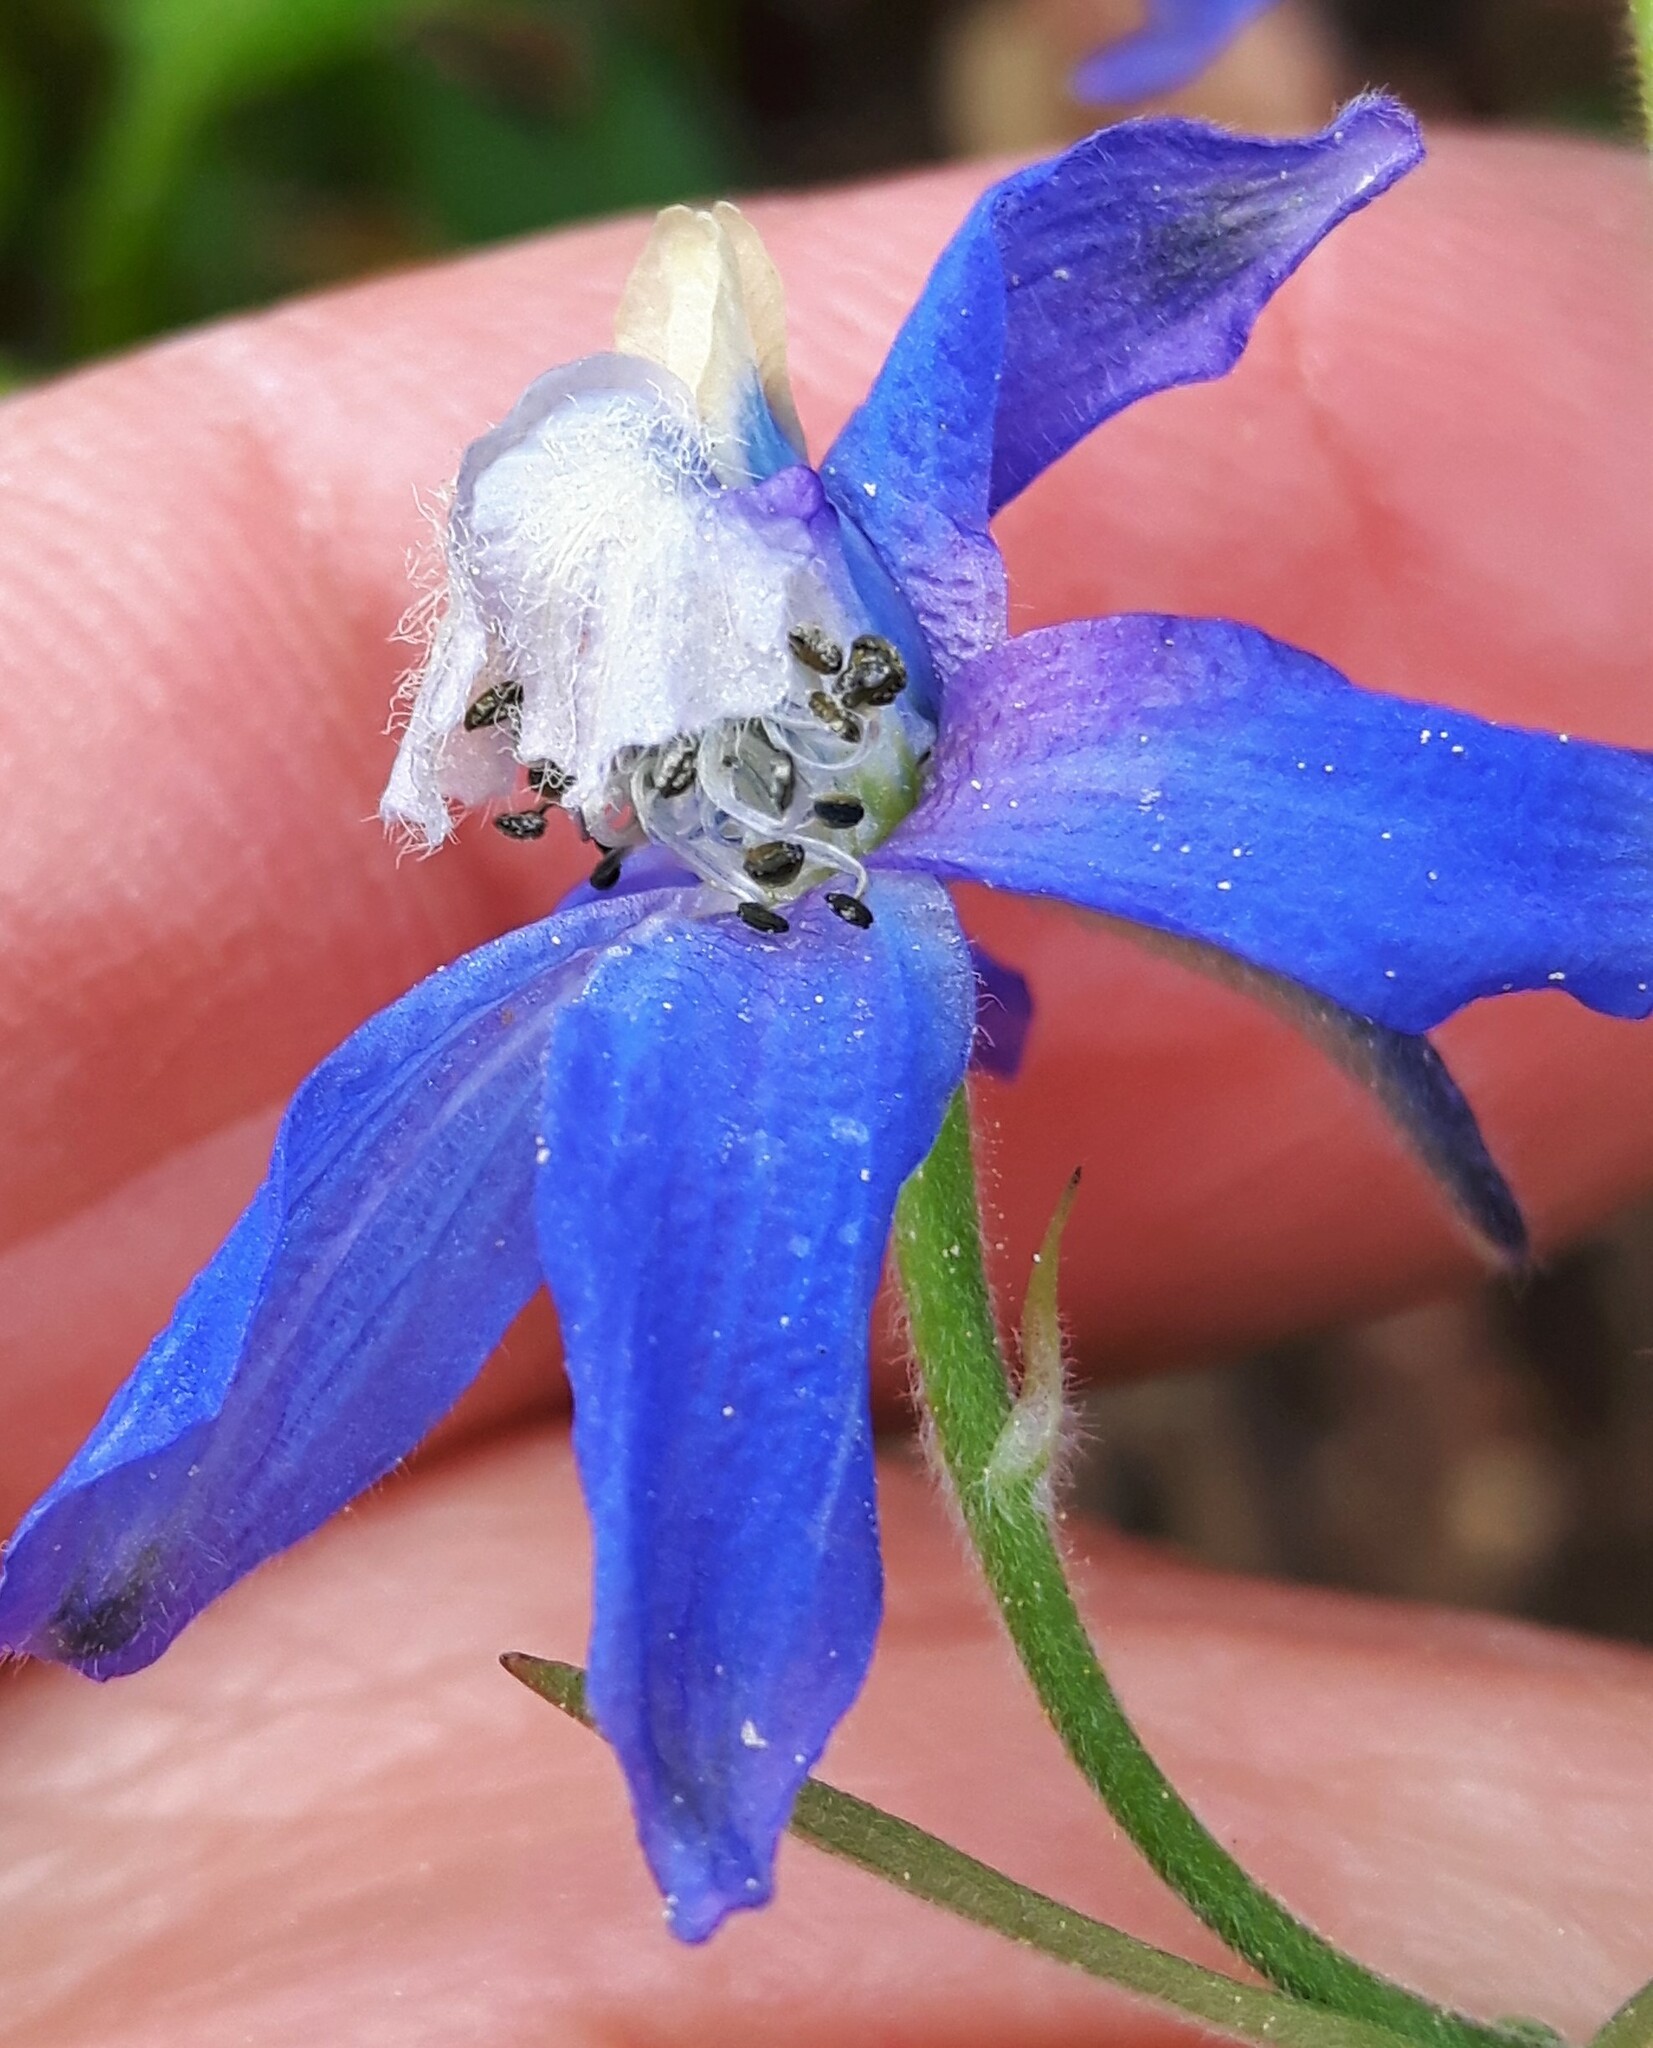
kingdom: Plantae
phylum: Tracheophyta
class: Magnoliopsida
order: Ranunculales
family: Ranunculaceae
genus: Delphinium
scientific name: Delphinium sutherlandii
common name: Sutherland's larkspur
